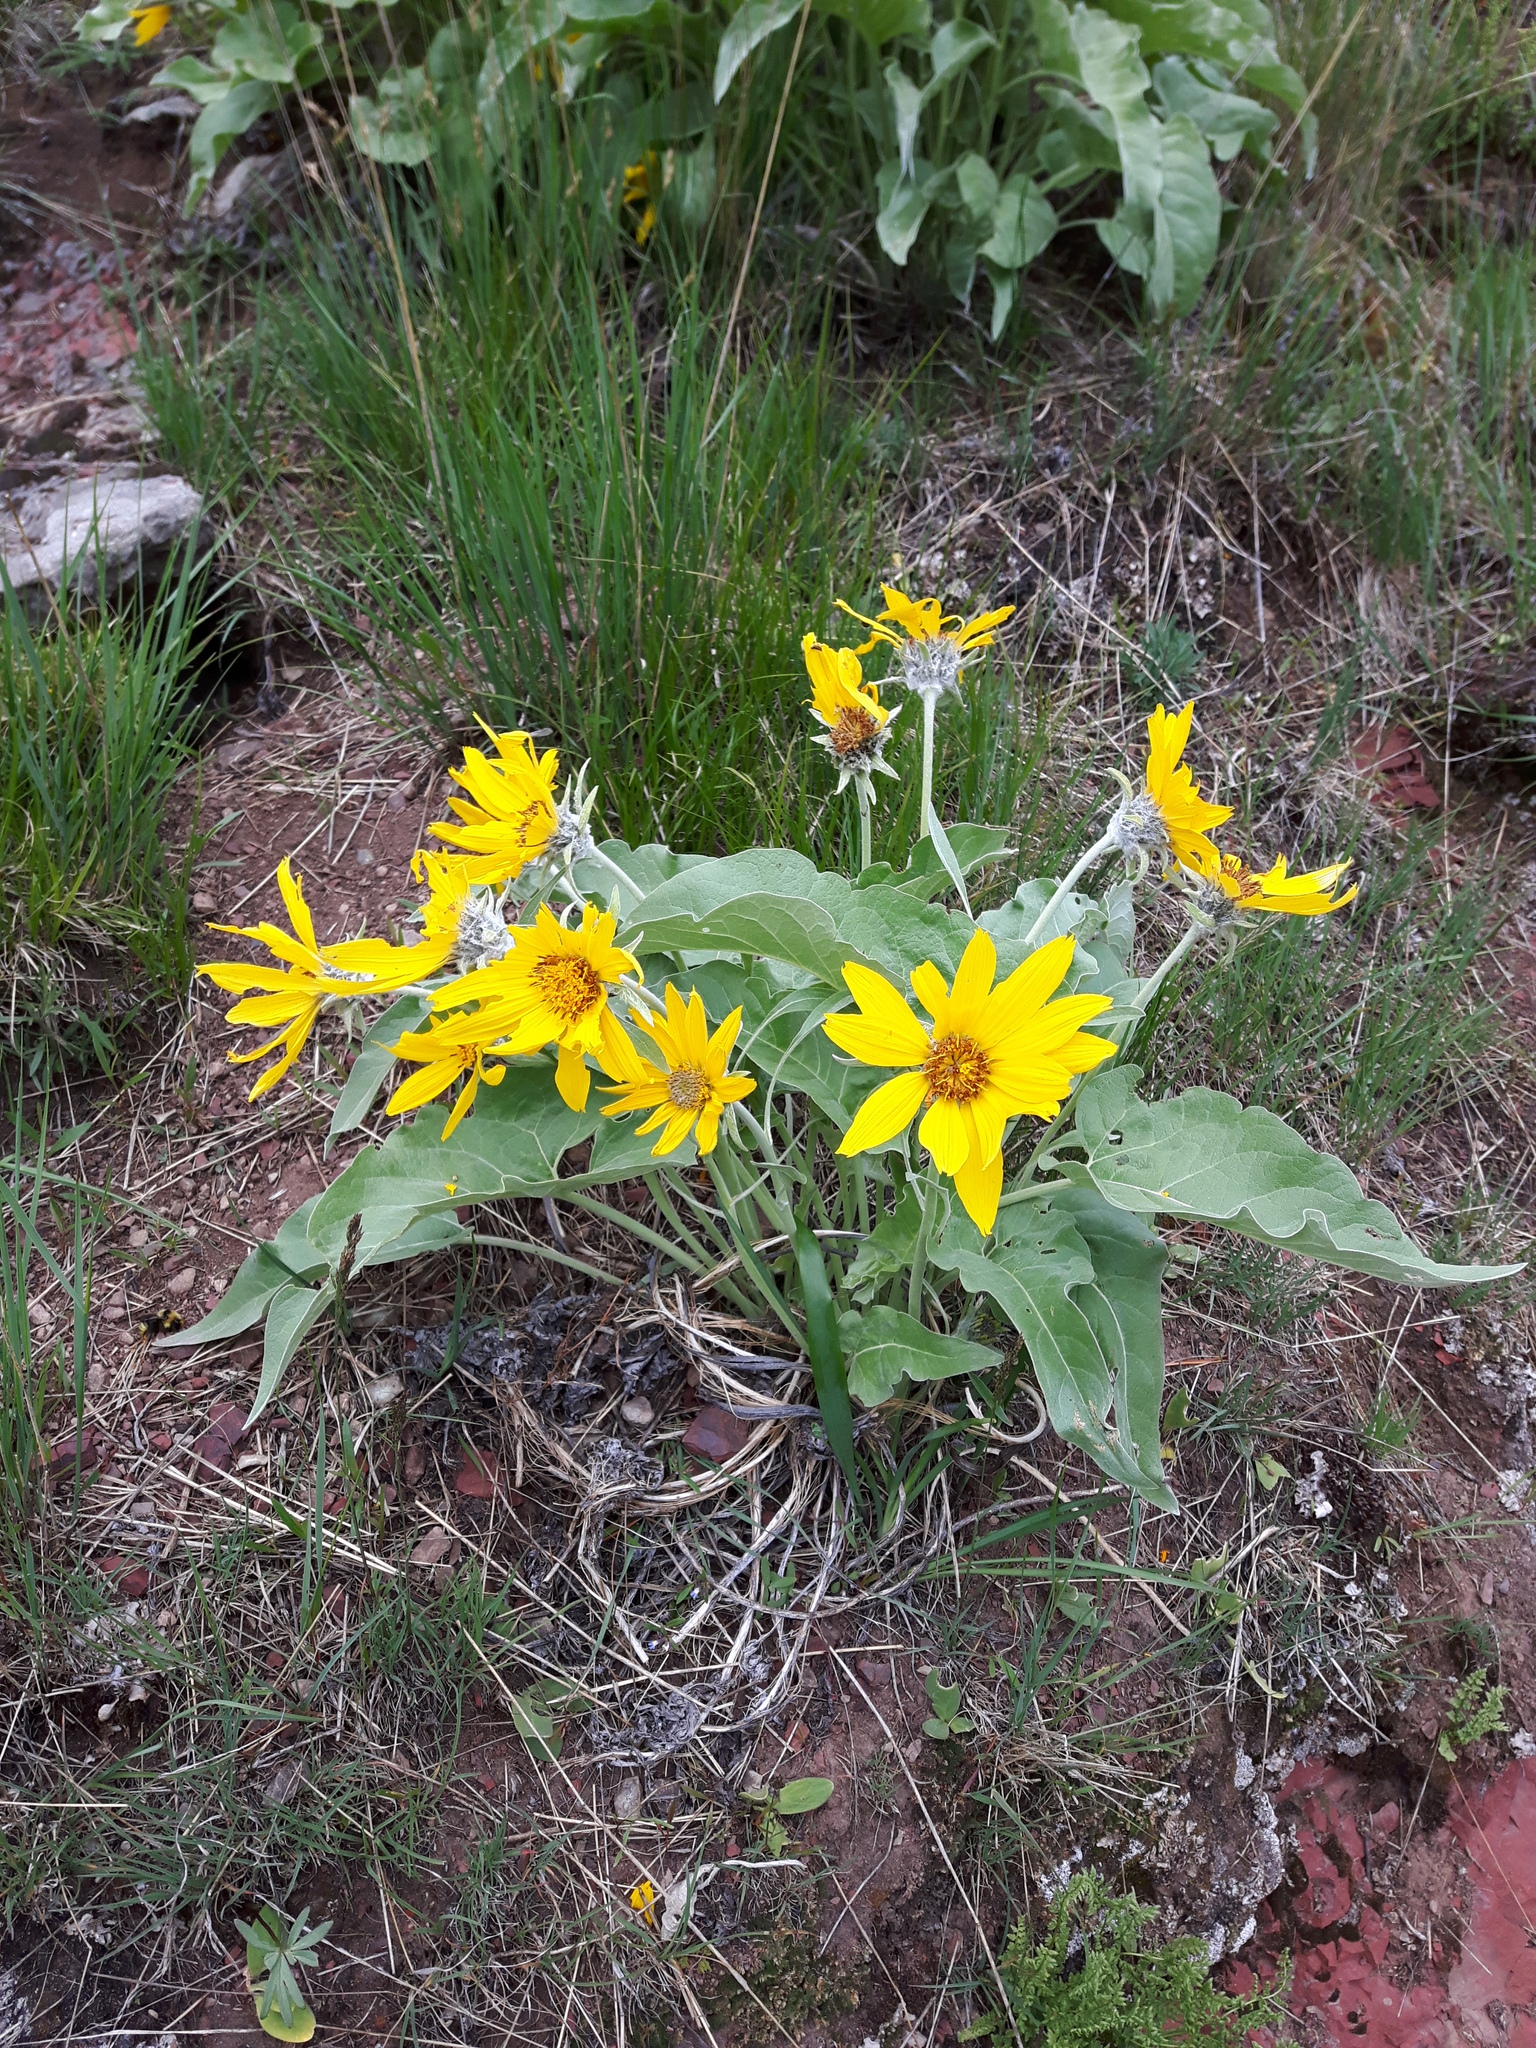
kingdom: Plantae
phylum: Tracheophyta
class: Magnoliopsida
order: Asterales
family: Asteraceae
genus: Wyethia
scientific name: Wyethia sagittata
